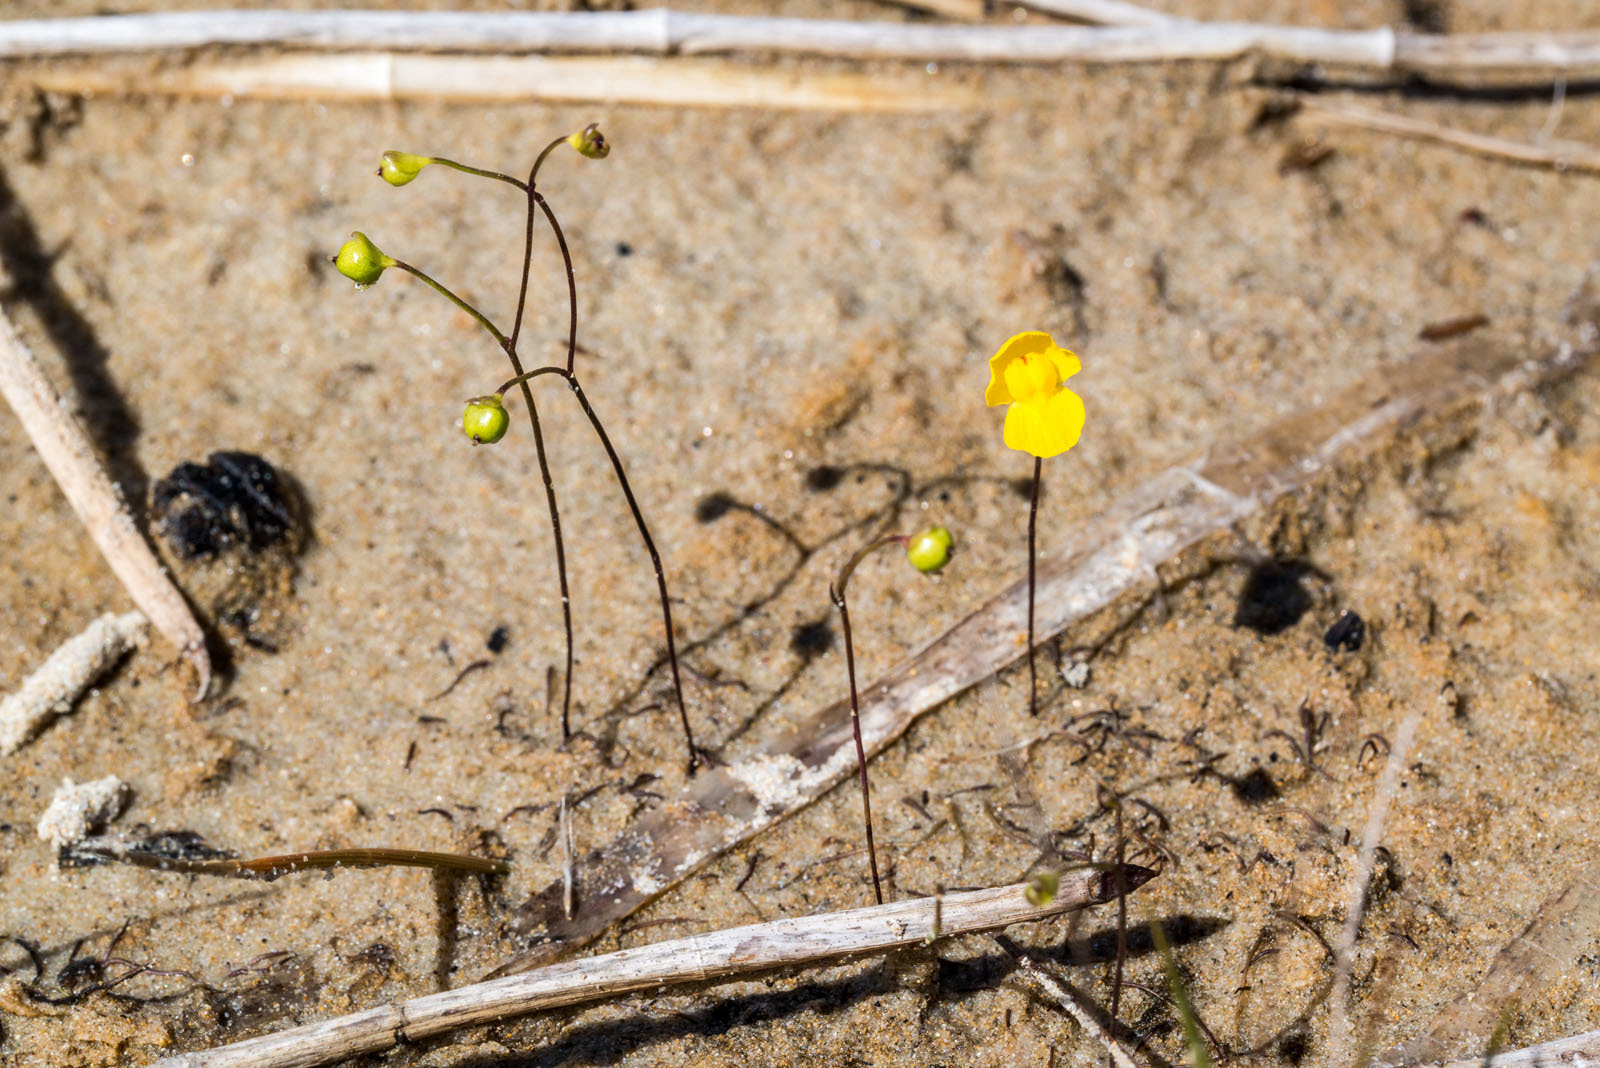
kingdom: Plantae
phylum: Tracheophyta
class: Magnoliopsida
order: Lamiales
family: Lentibulariaceae
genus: Utricularia
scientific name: Utricularia gibba
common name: Humped bladderwort
